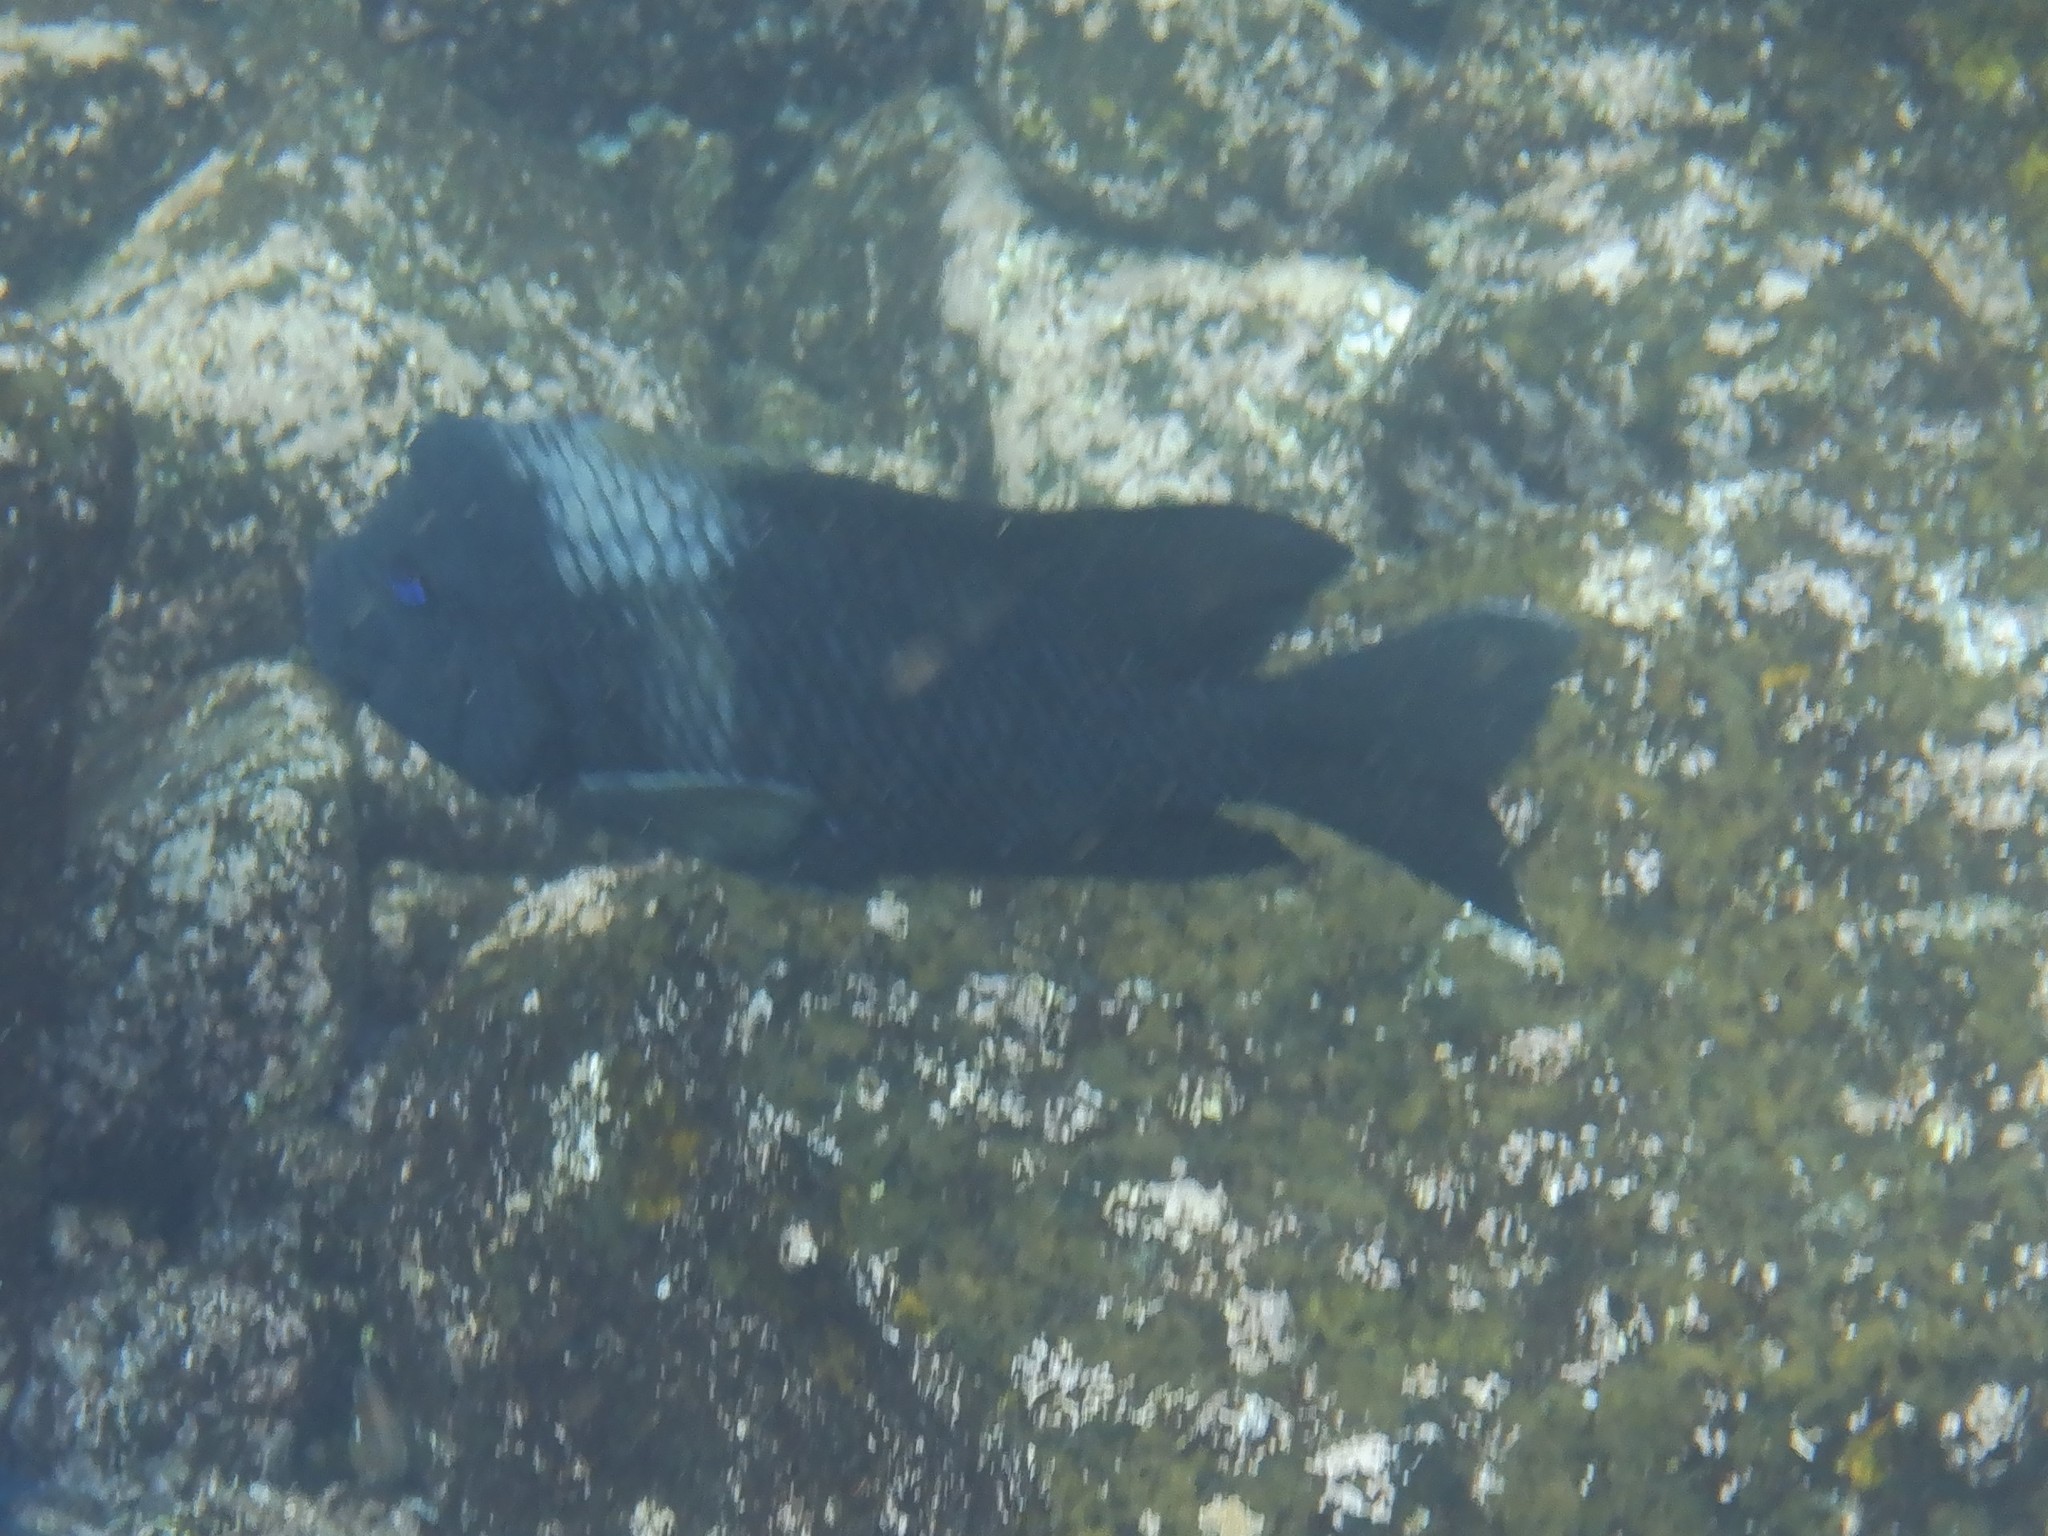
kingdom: Animalia
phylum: Chordata
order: Perciformes
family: Pomacentridae
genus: Microspathodon
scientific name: Microspathodon bairdii
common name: Bumphead damselfish
